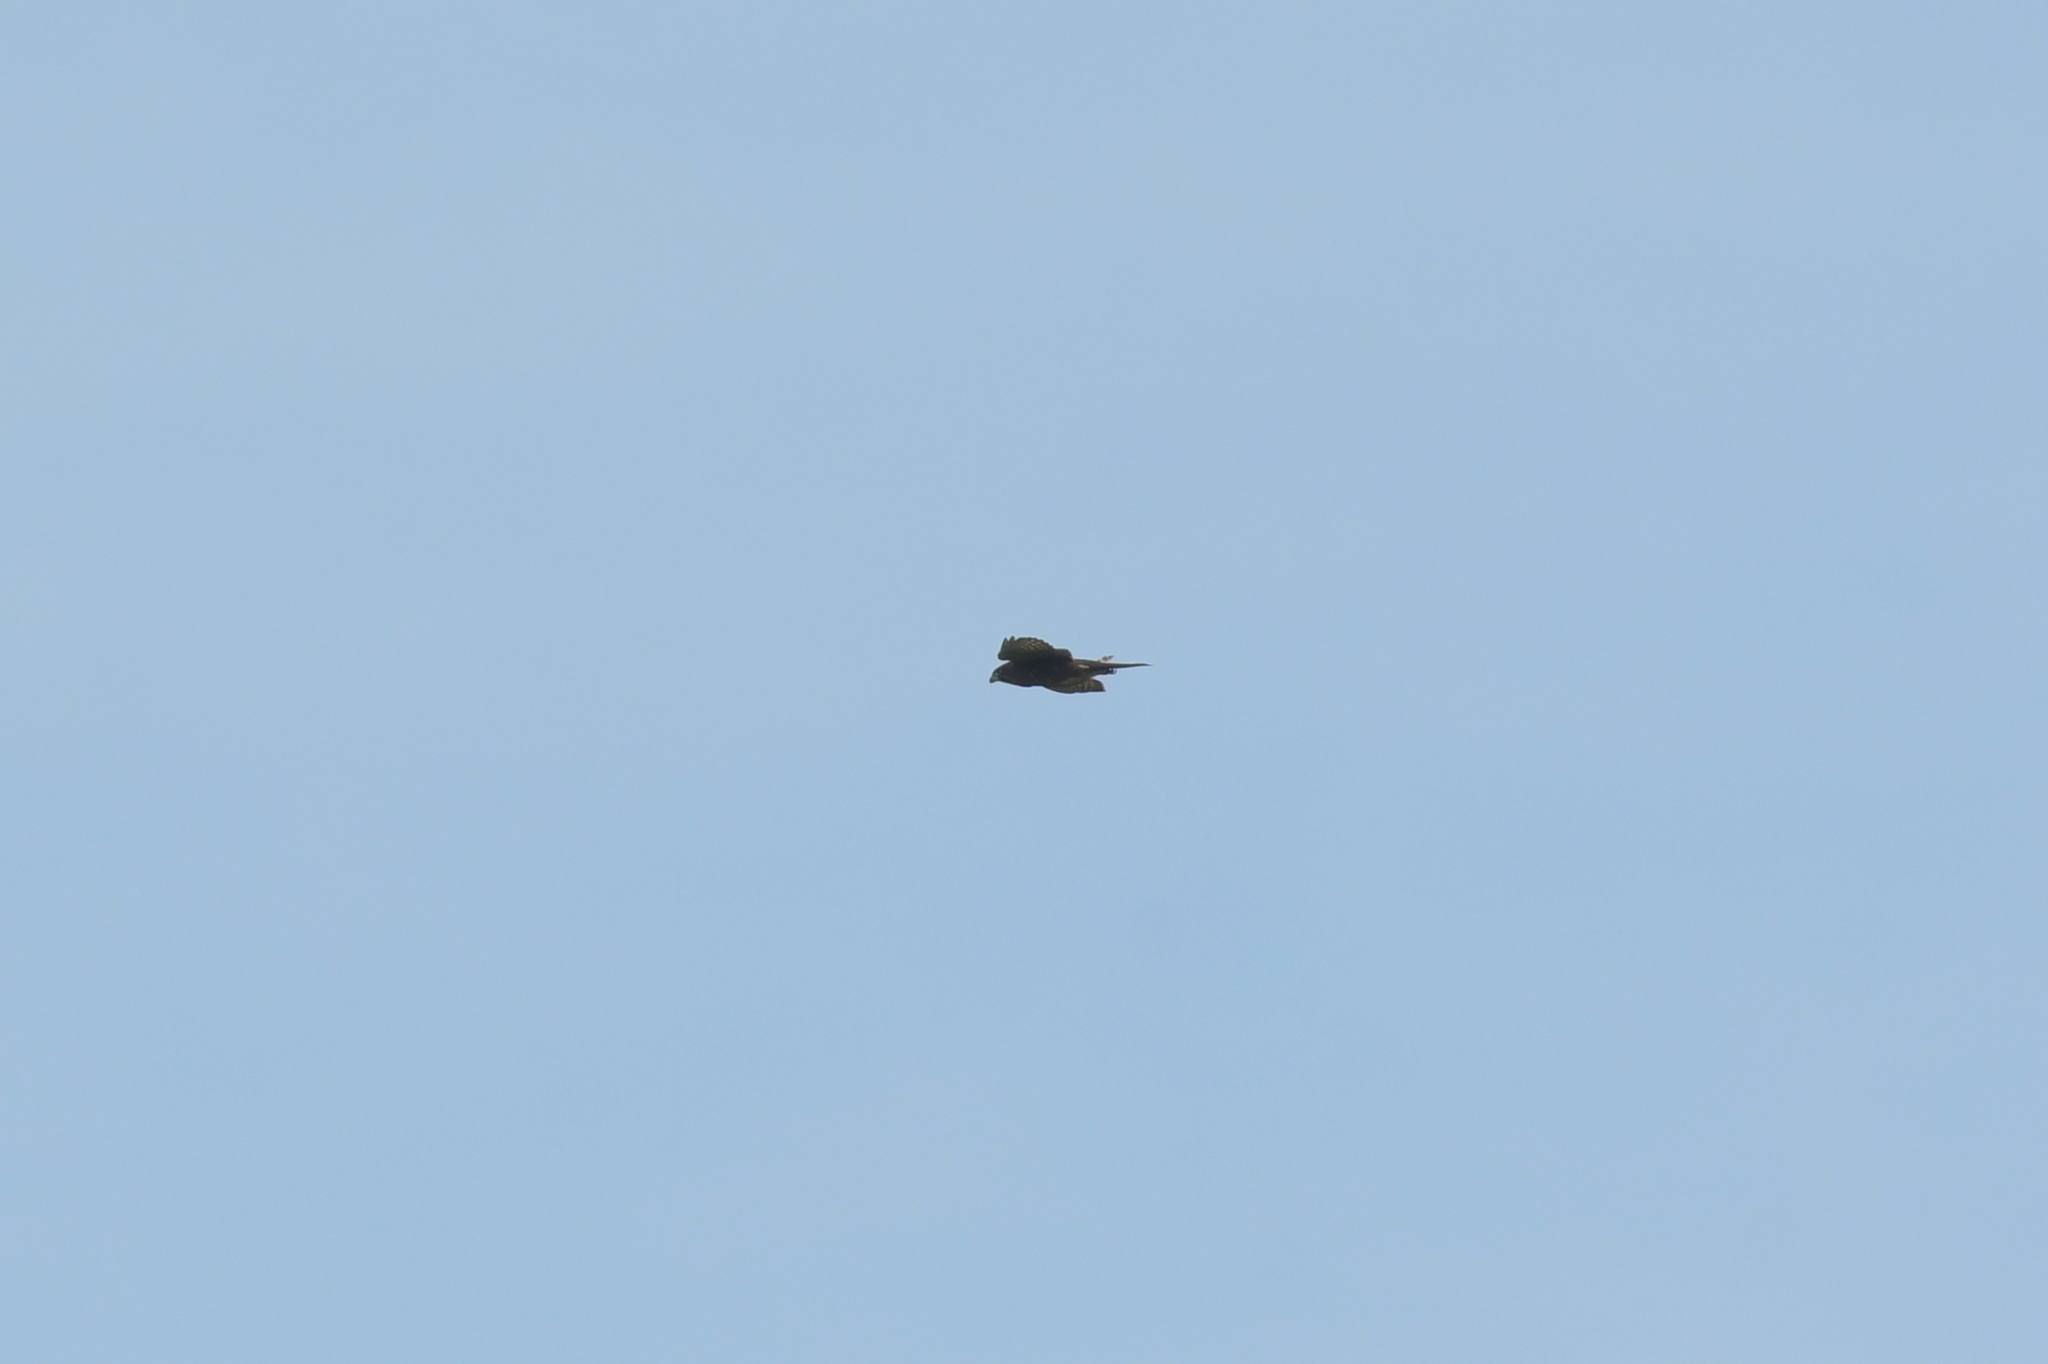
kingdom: Animalia
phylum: Chordata
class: Aves
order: Falconiformes
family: Falconidae
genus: Falco
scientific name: Falco novaeseelandiae
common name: New zealand falcon
